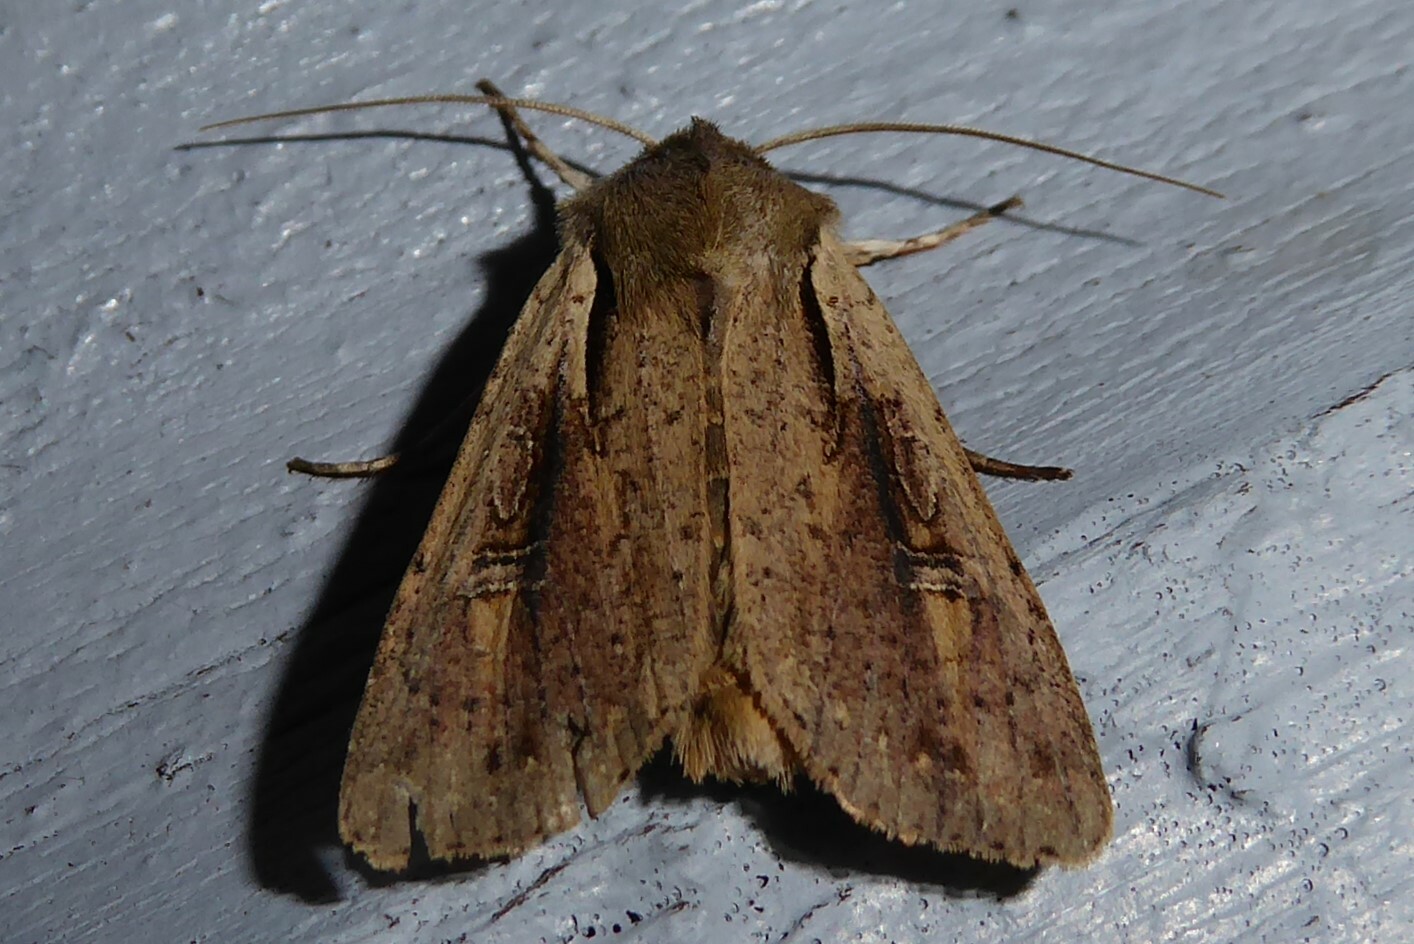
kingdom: Animalia
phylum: Arthropoda
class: Insecta
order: Lepidoptera
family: Noctuidae
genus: Ichneutica
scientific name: Ichneutica atristriga
